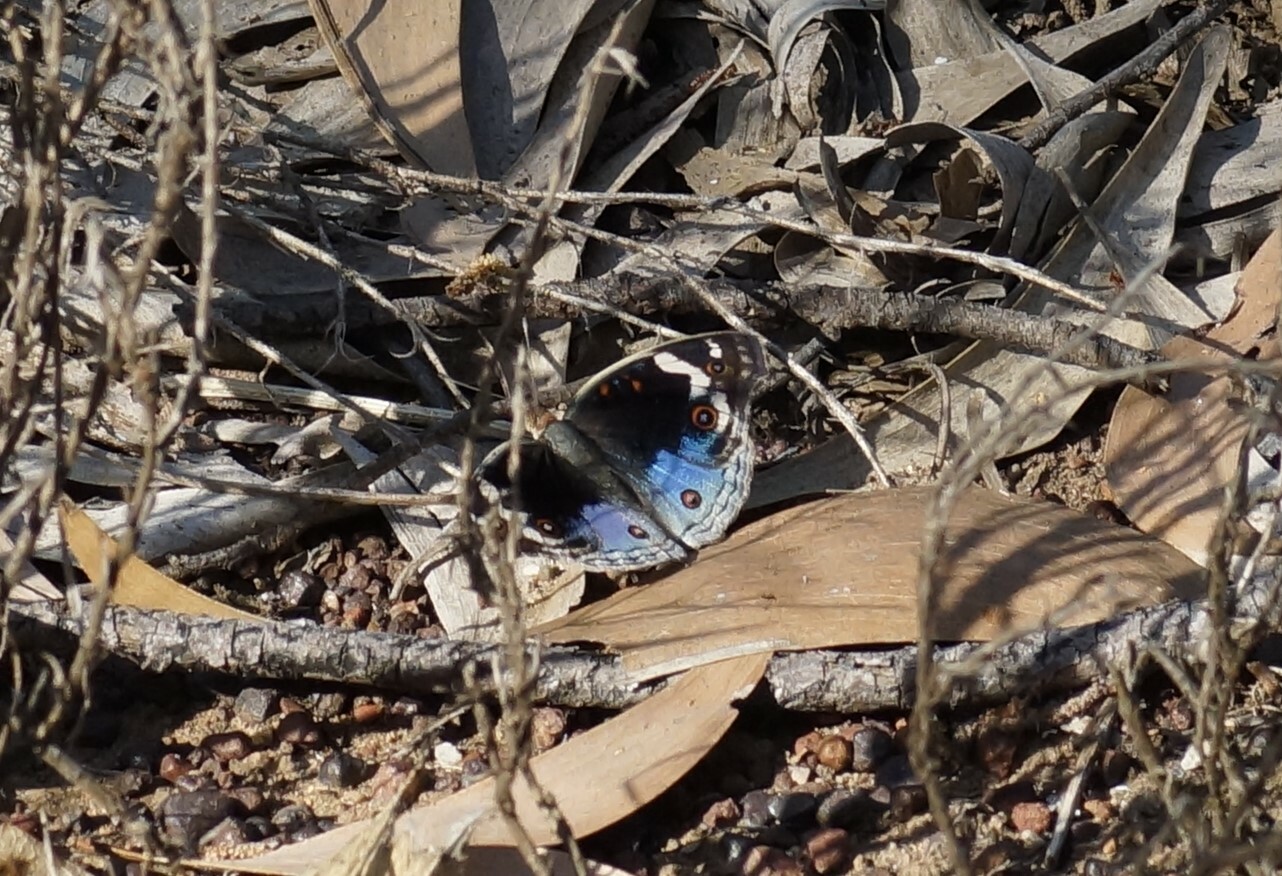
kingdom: Animalia
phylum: Arthropoda
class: Insecta
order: Lepidoptera
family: Nymphalidae
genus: Junonia
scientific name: Junonia orithya
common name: Blue pansy
